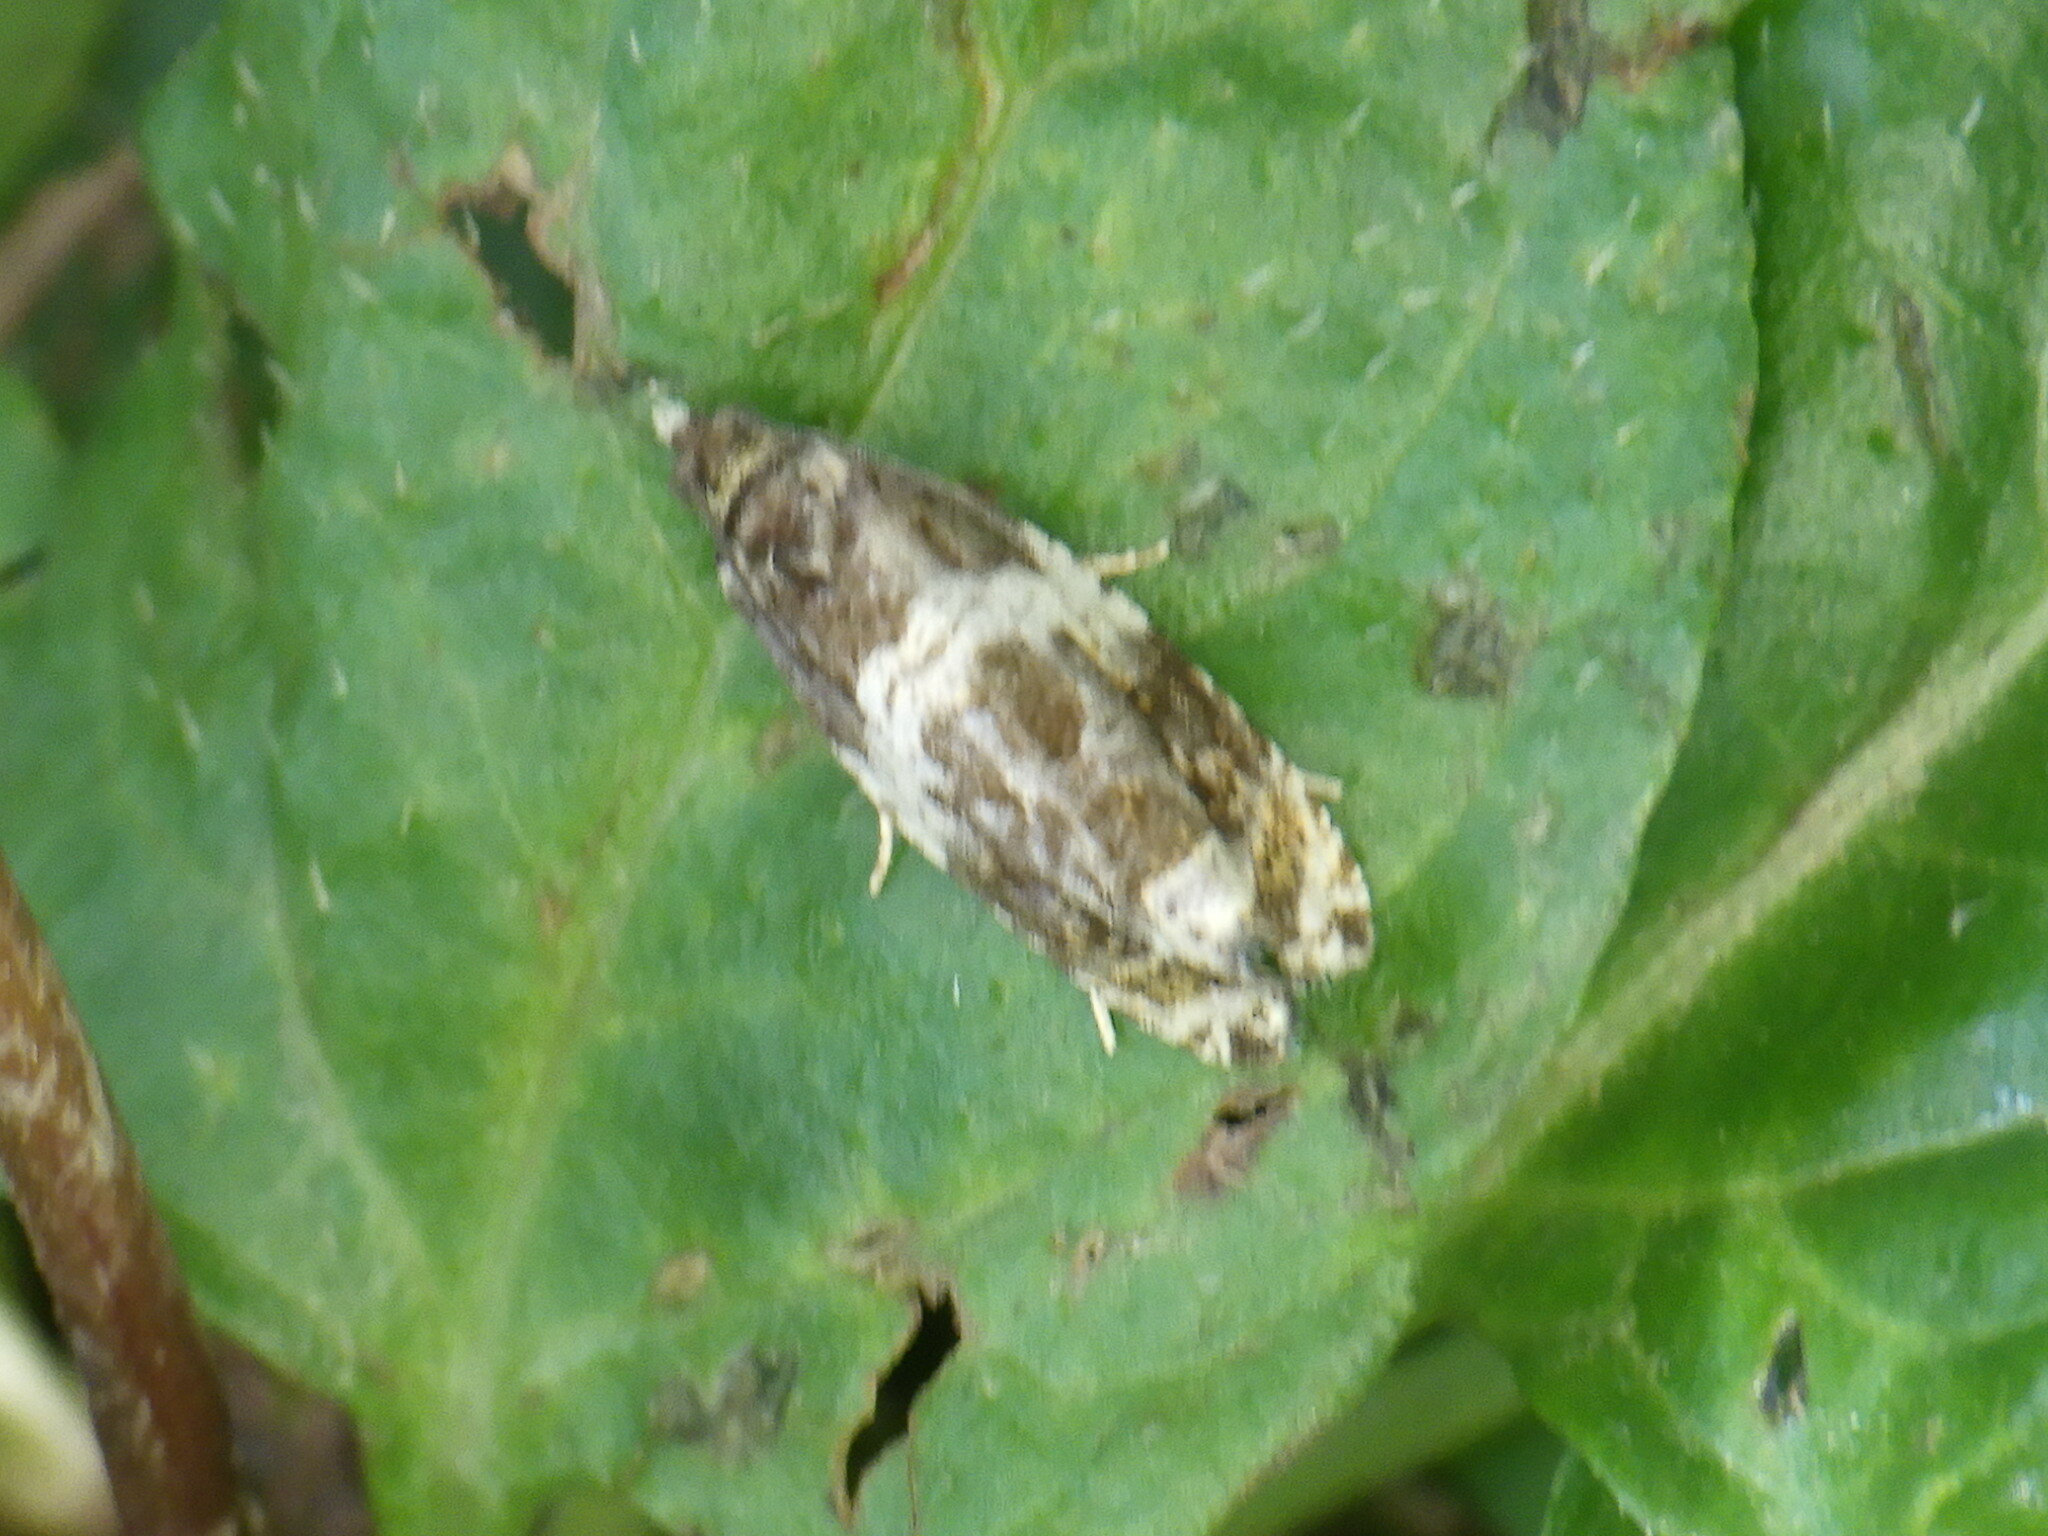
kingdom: Animalia
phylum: Arthropoda
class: Insecta
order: Lepidoptera
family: Tortricidae
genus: Olethreutes
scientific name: Olethreutes fasciatana
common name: Banded olethreutes moth
